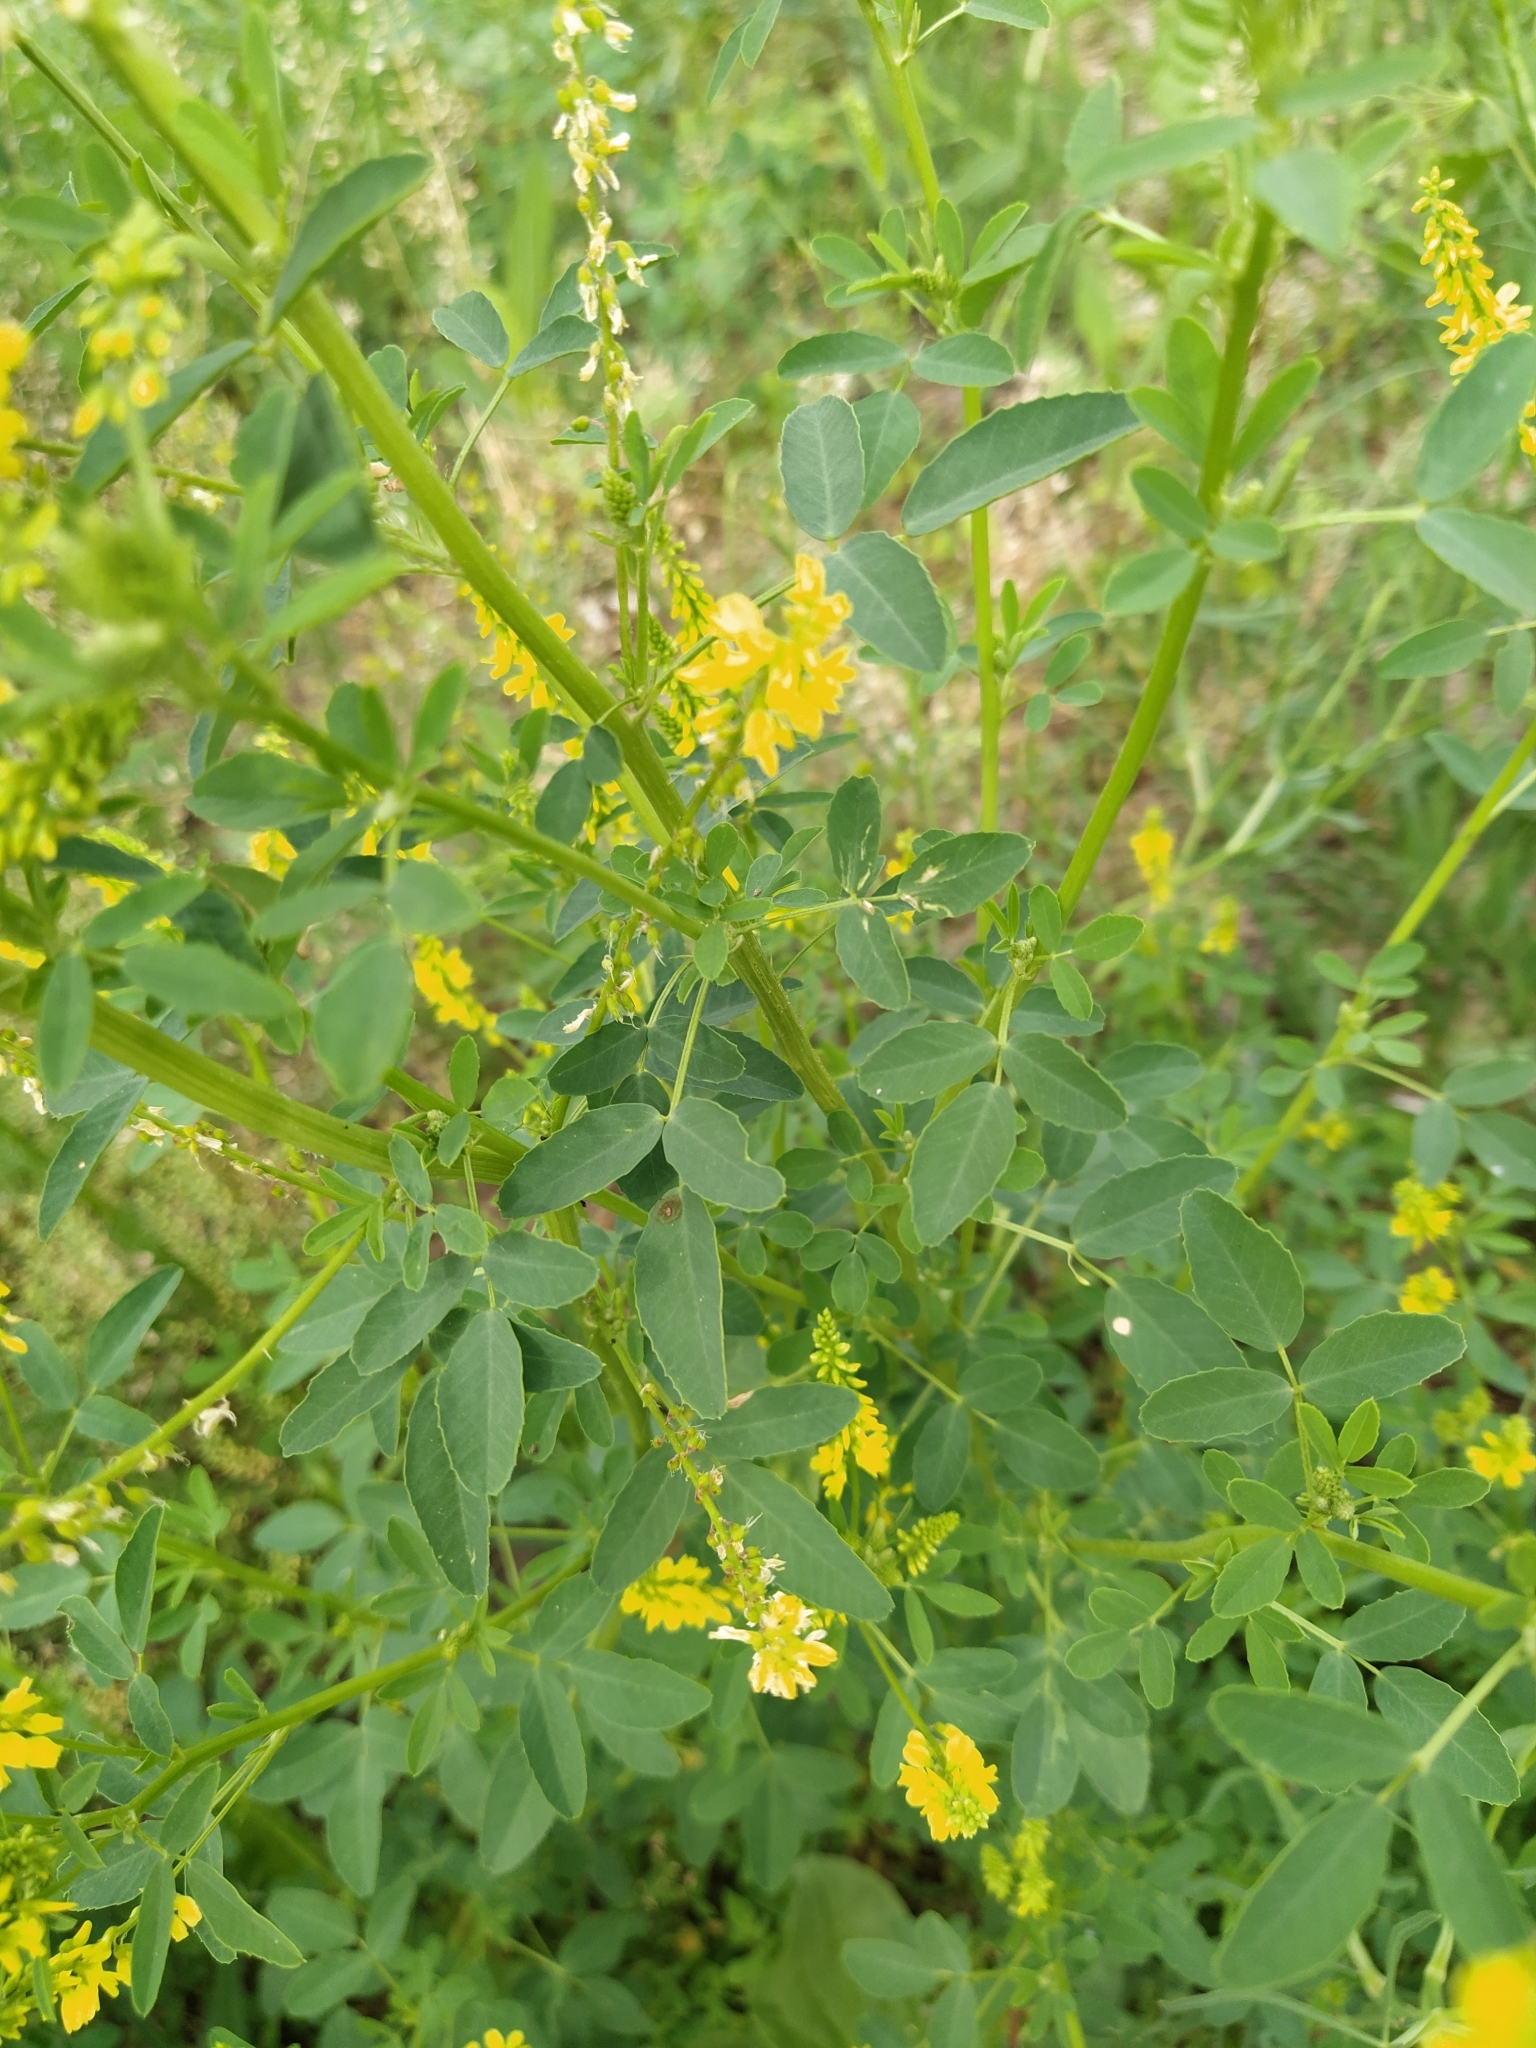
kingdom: Plantae
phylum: Tracheophyta
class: Magnoliopsida
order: Fabales
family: Fabaceae
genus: Melilotus
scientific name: Melilotus officinalis
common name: Sweetclover
